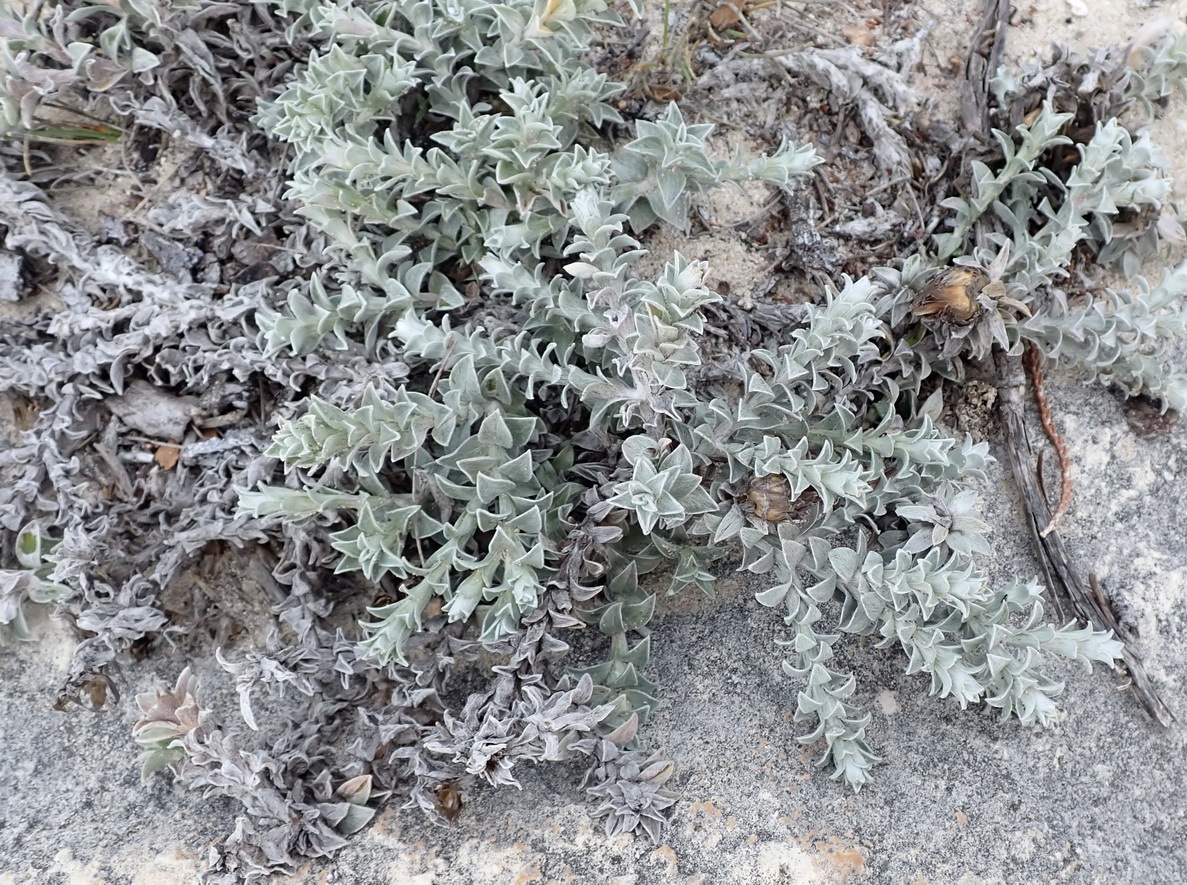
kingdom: Plantae
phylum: Tracheophyta
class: Magnoliopsida
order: Asterales
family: Asteraceae
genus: Helichrysum
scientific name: Helichrysum retortum
